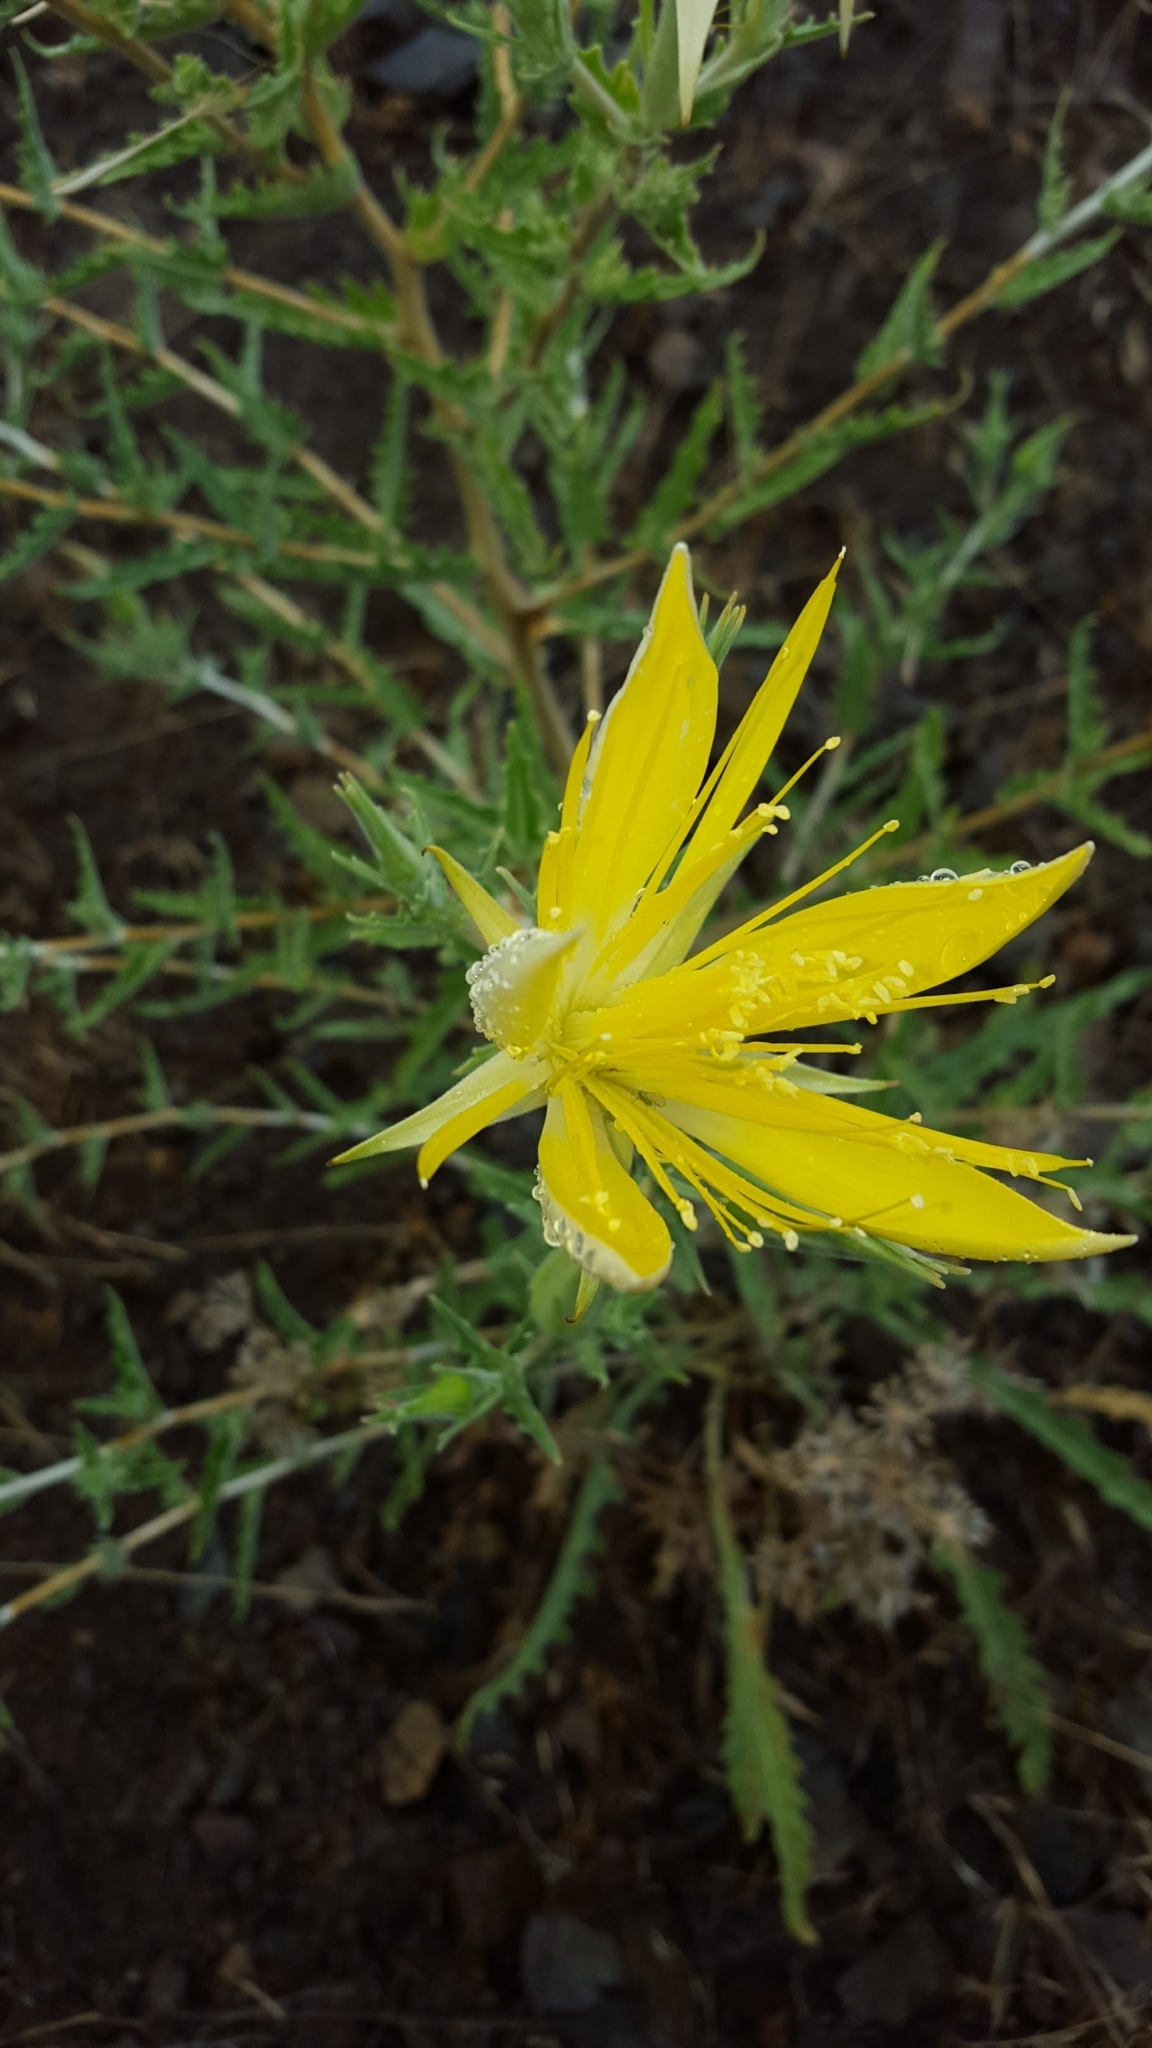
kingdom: Plantae
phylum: Tracheophyta
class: Magnoliopsida
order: Cornales
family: Loasaceae
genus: Mentzelia
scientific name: Mentzelia laevicaulis
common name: Smooth-stem blazingstar
